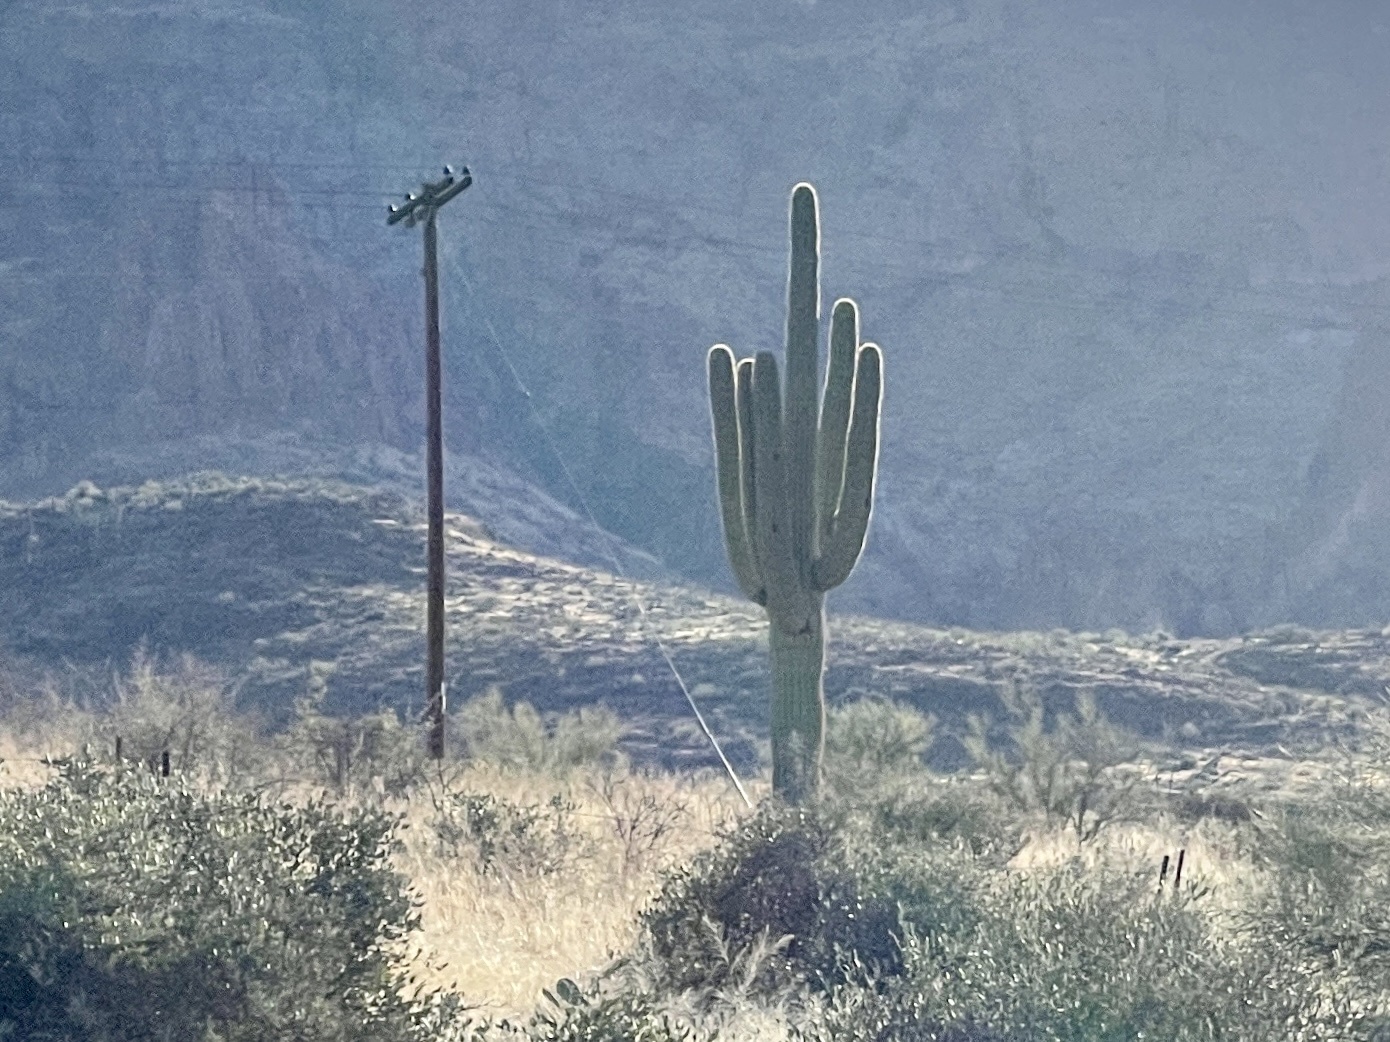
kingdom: Plantae
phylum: Tracheophyta
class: Magnoliopsida
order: Caryophyllales
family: Cactaceae
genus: Carnegiea
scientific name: Carnegiea gigantea
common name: Saguaro
